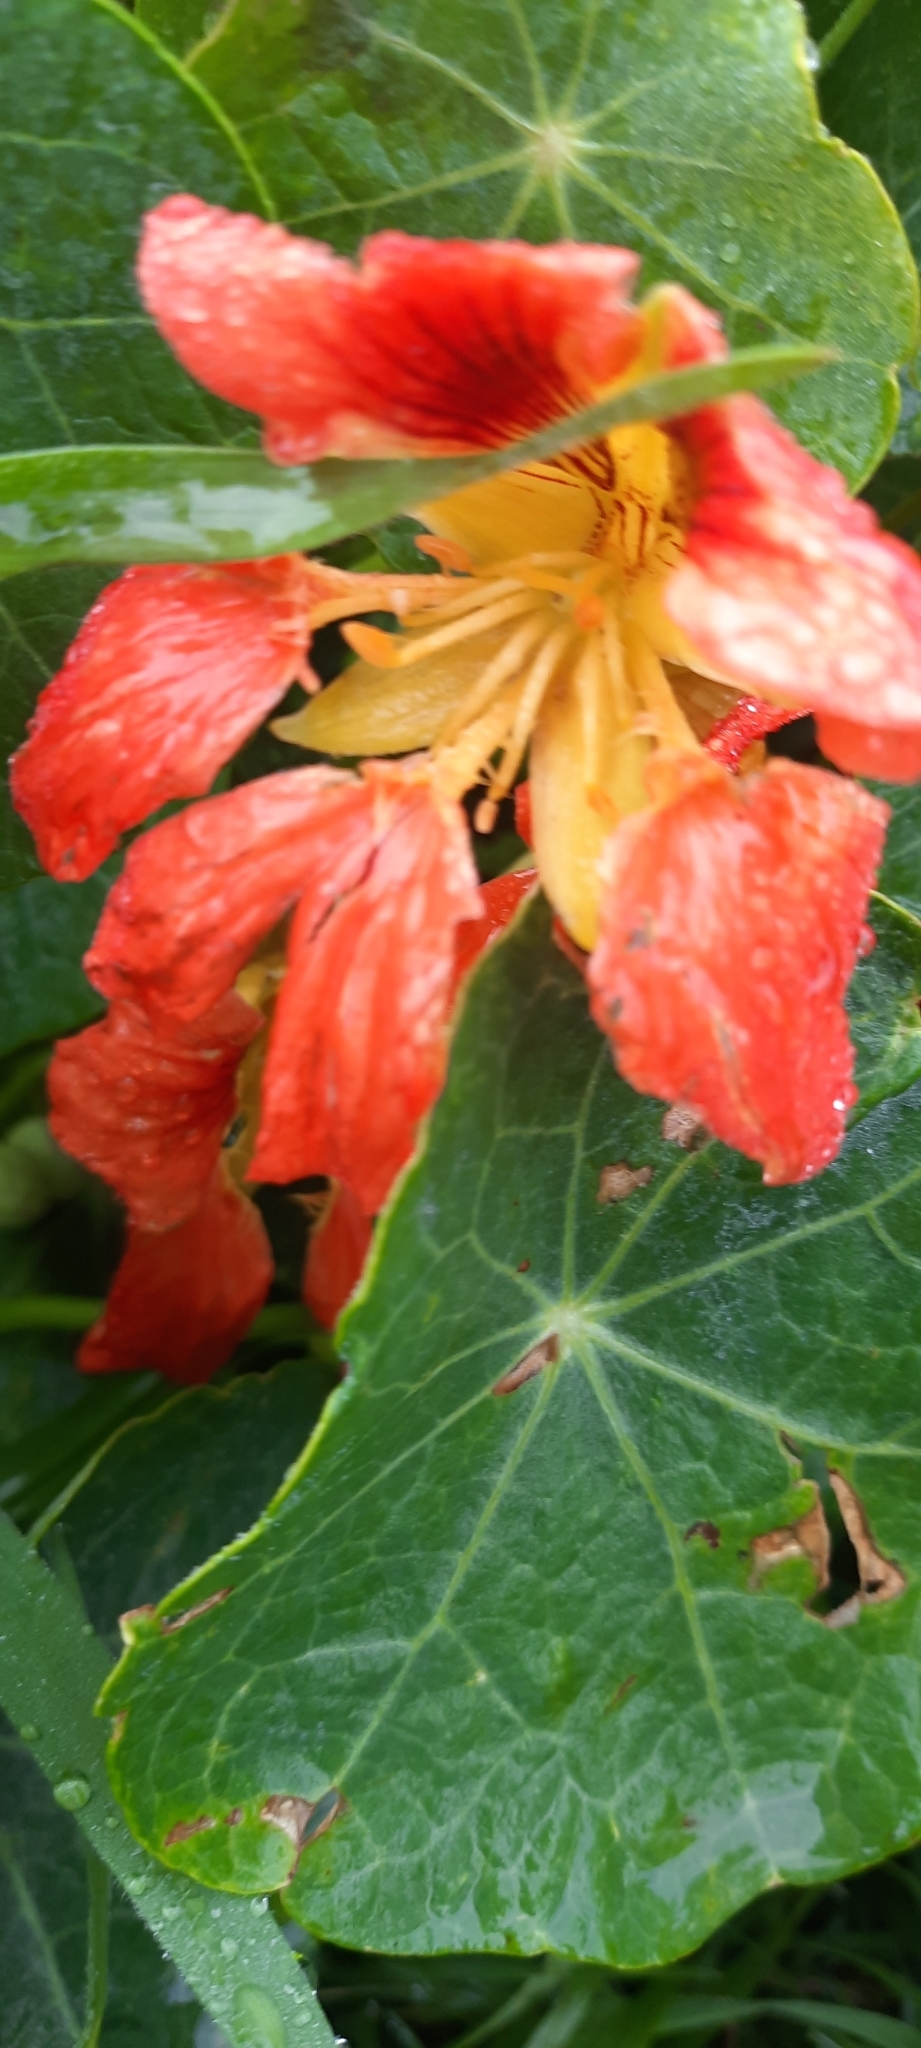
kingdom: Plantae
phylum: Tracheophyta
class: Magnoliopsida
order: Brassicales
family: Tropaeolaceae
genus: Tropaeolum
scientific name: Tropaeolum majus
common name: Nasturtium
